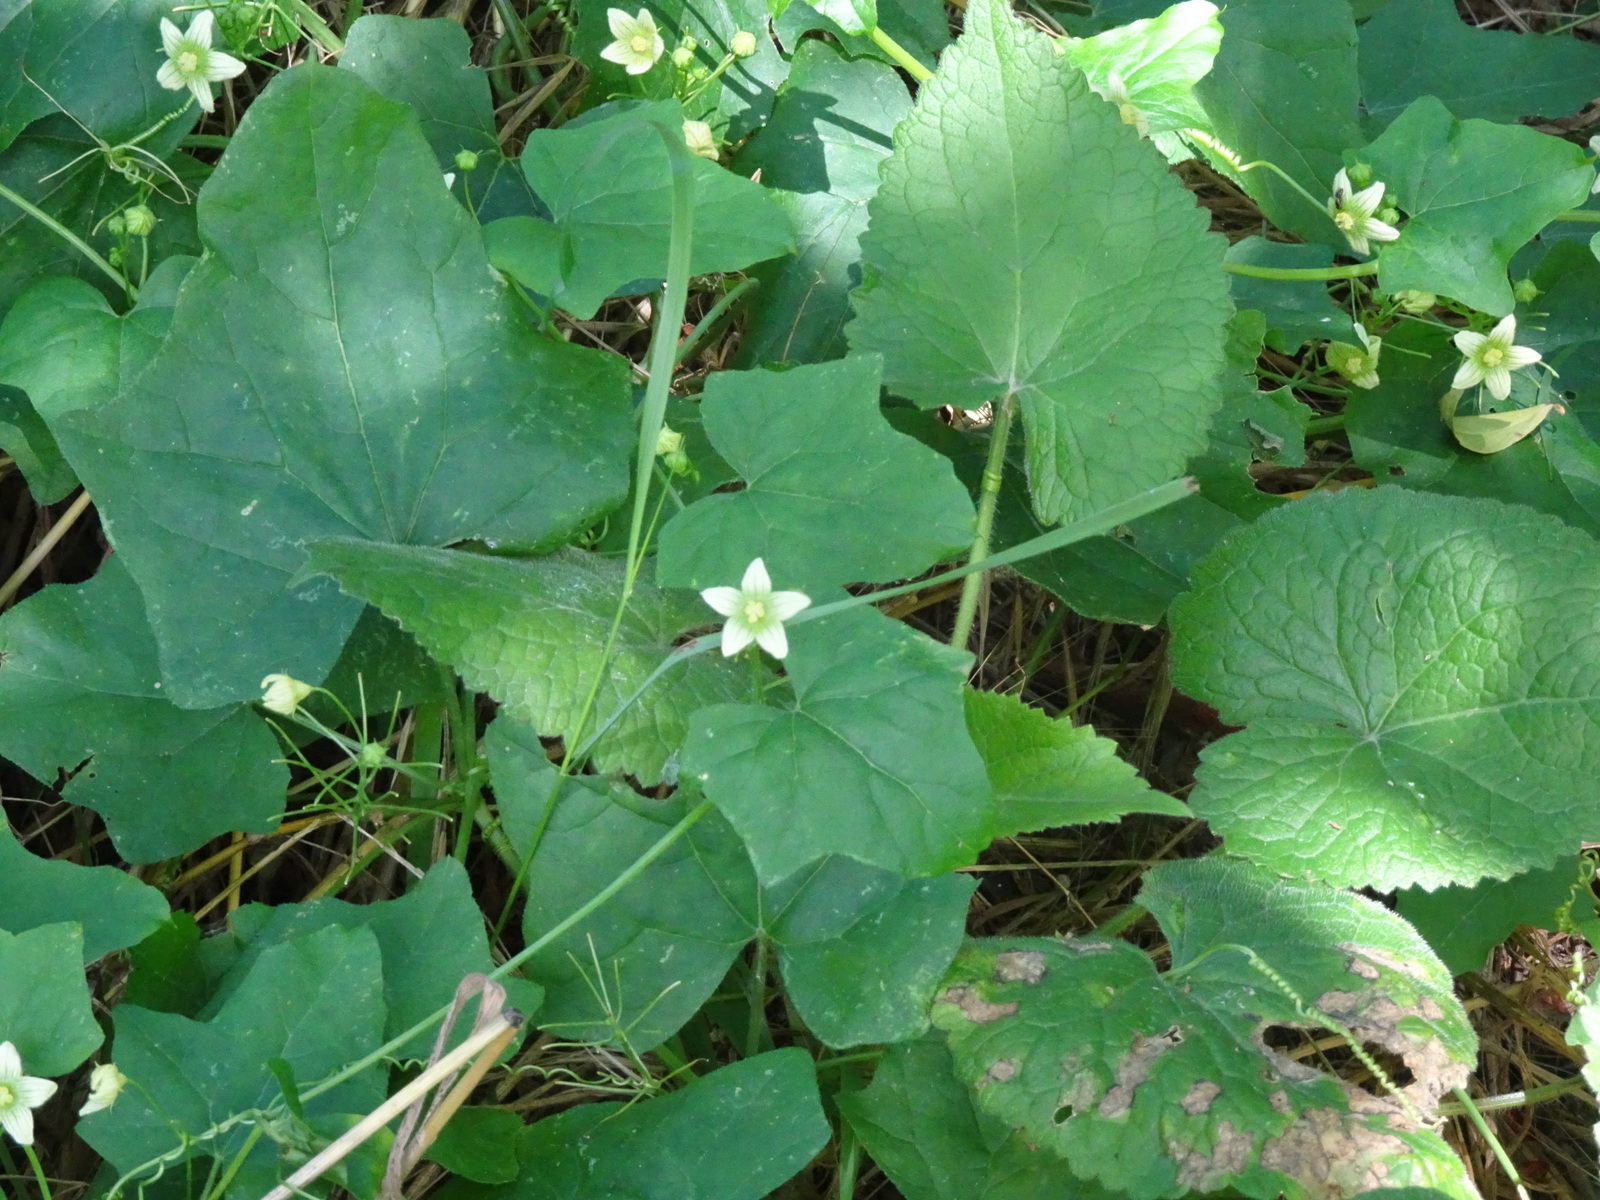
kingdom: Plantae
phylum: Tracheophyta
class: Magnoliopsida
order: Cucurbitales
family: Cucurbitaceae
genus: Bryonia
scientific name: Bryonia dioica
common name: White bryony
